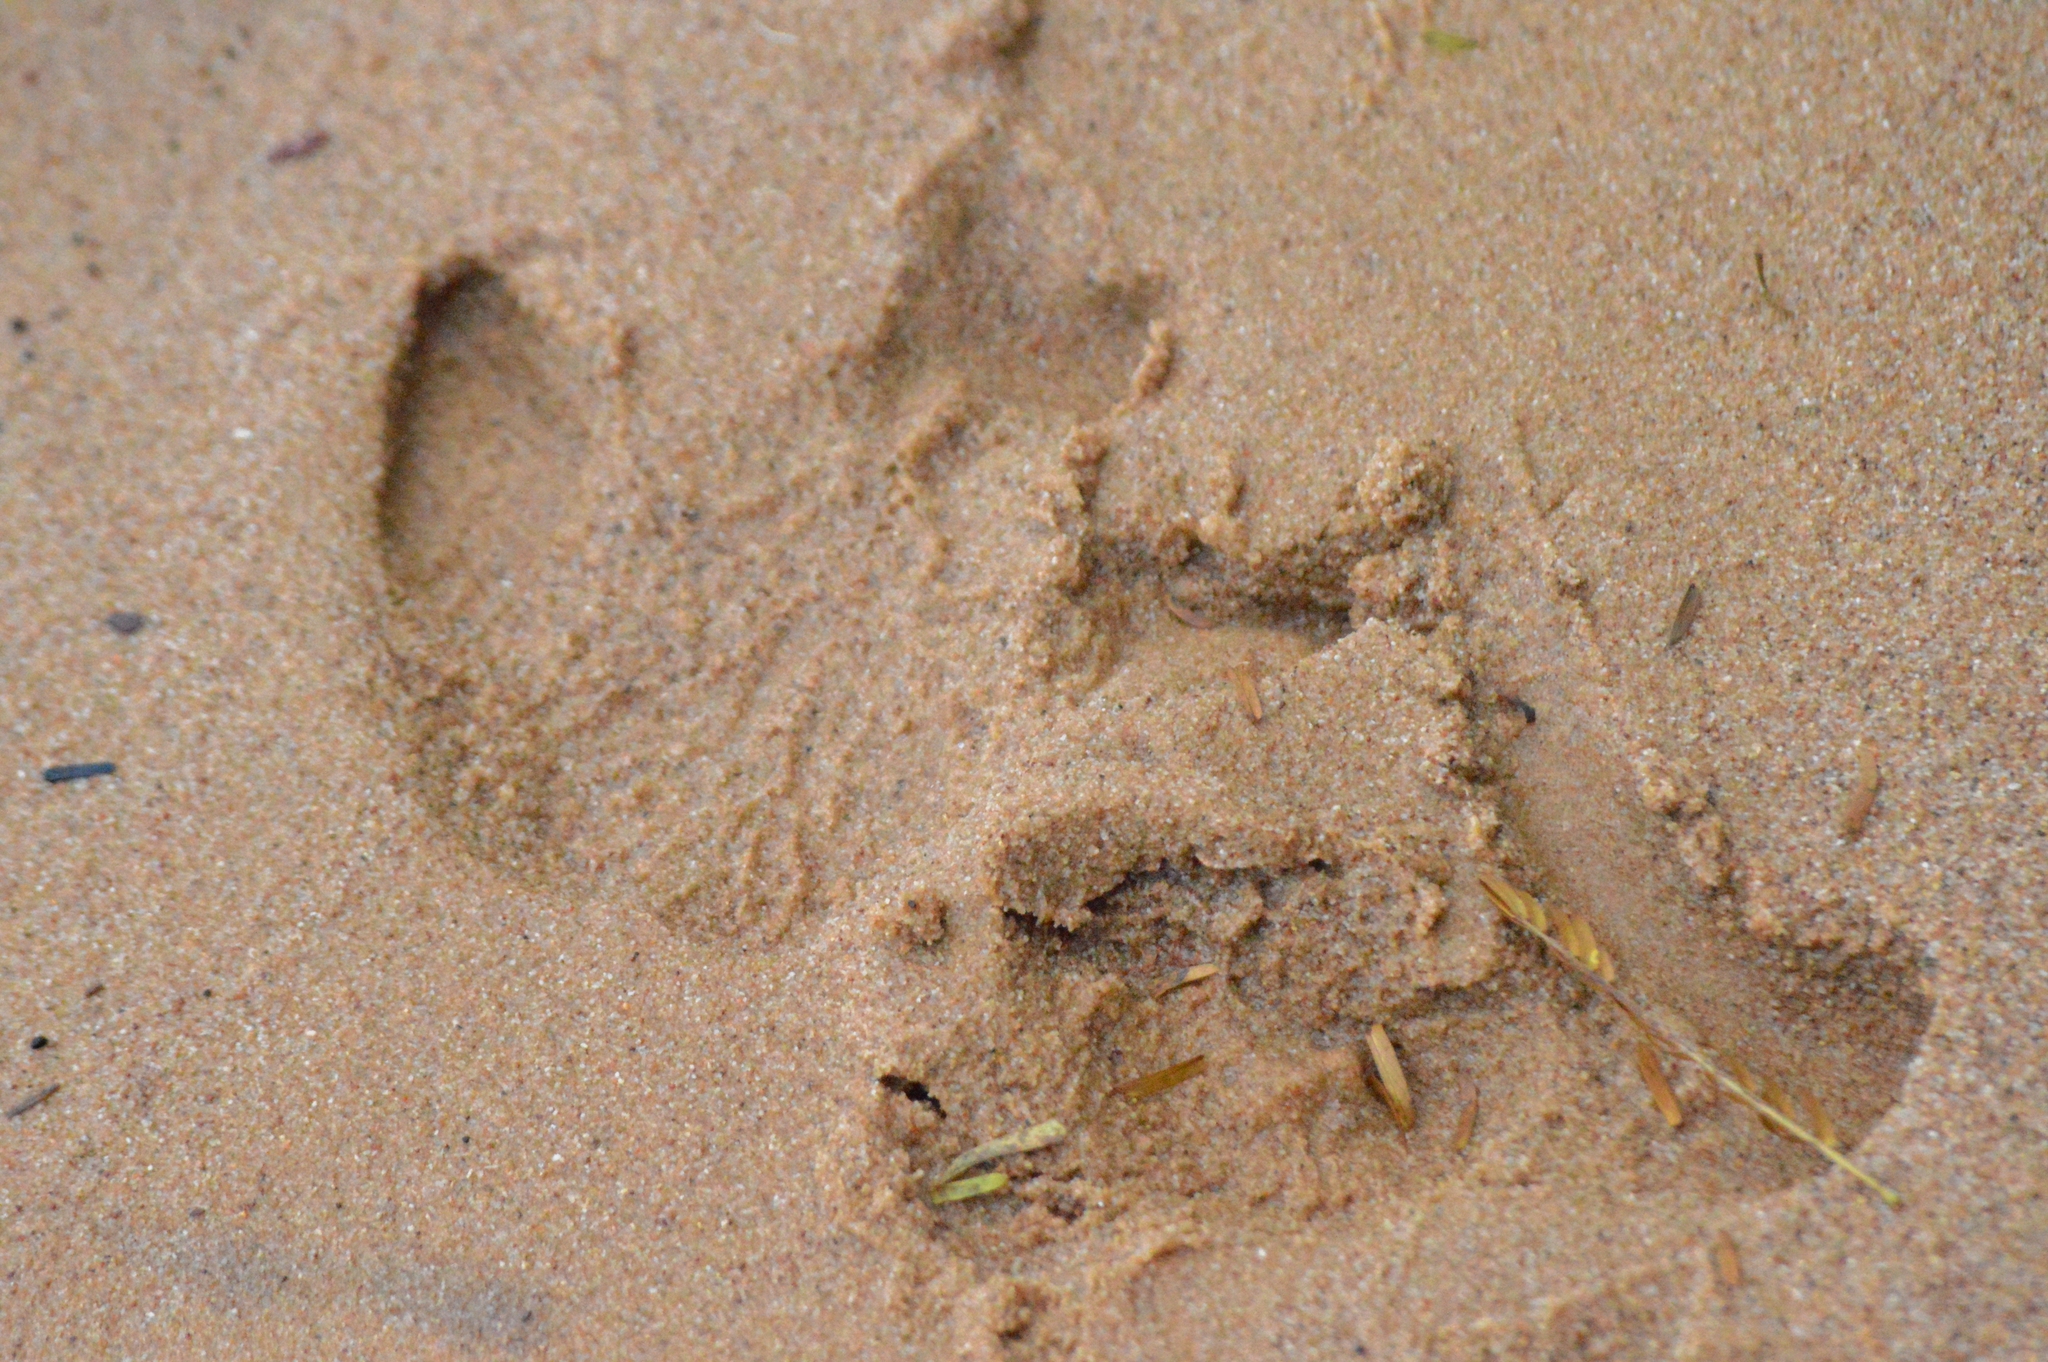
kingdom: Animalia
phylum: Chordata
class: Mammalia
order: Rodentia
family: Caviidae
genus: Hydrochoerus
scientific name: Hydrochoerus hydrochaeris
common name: Capybara
